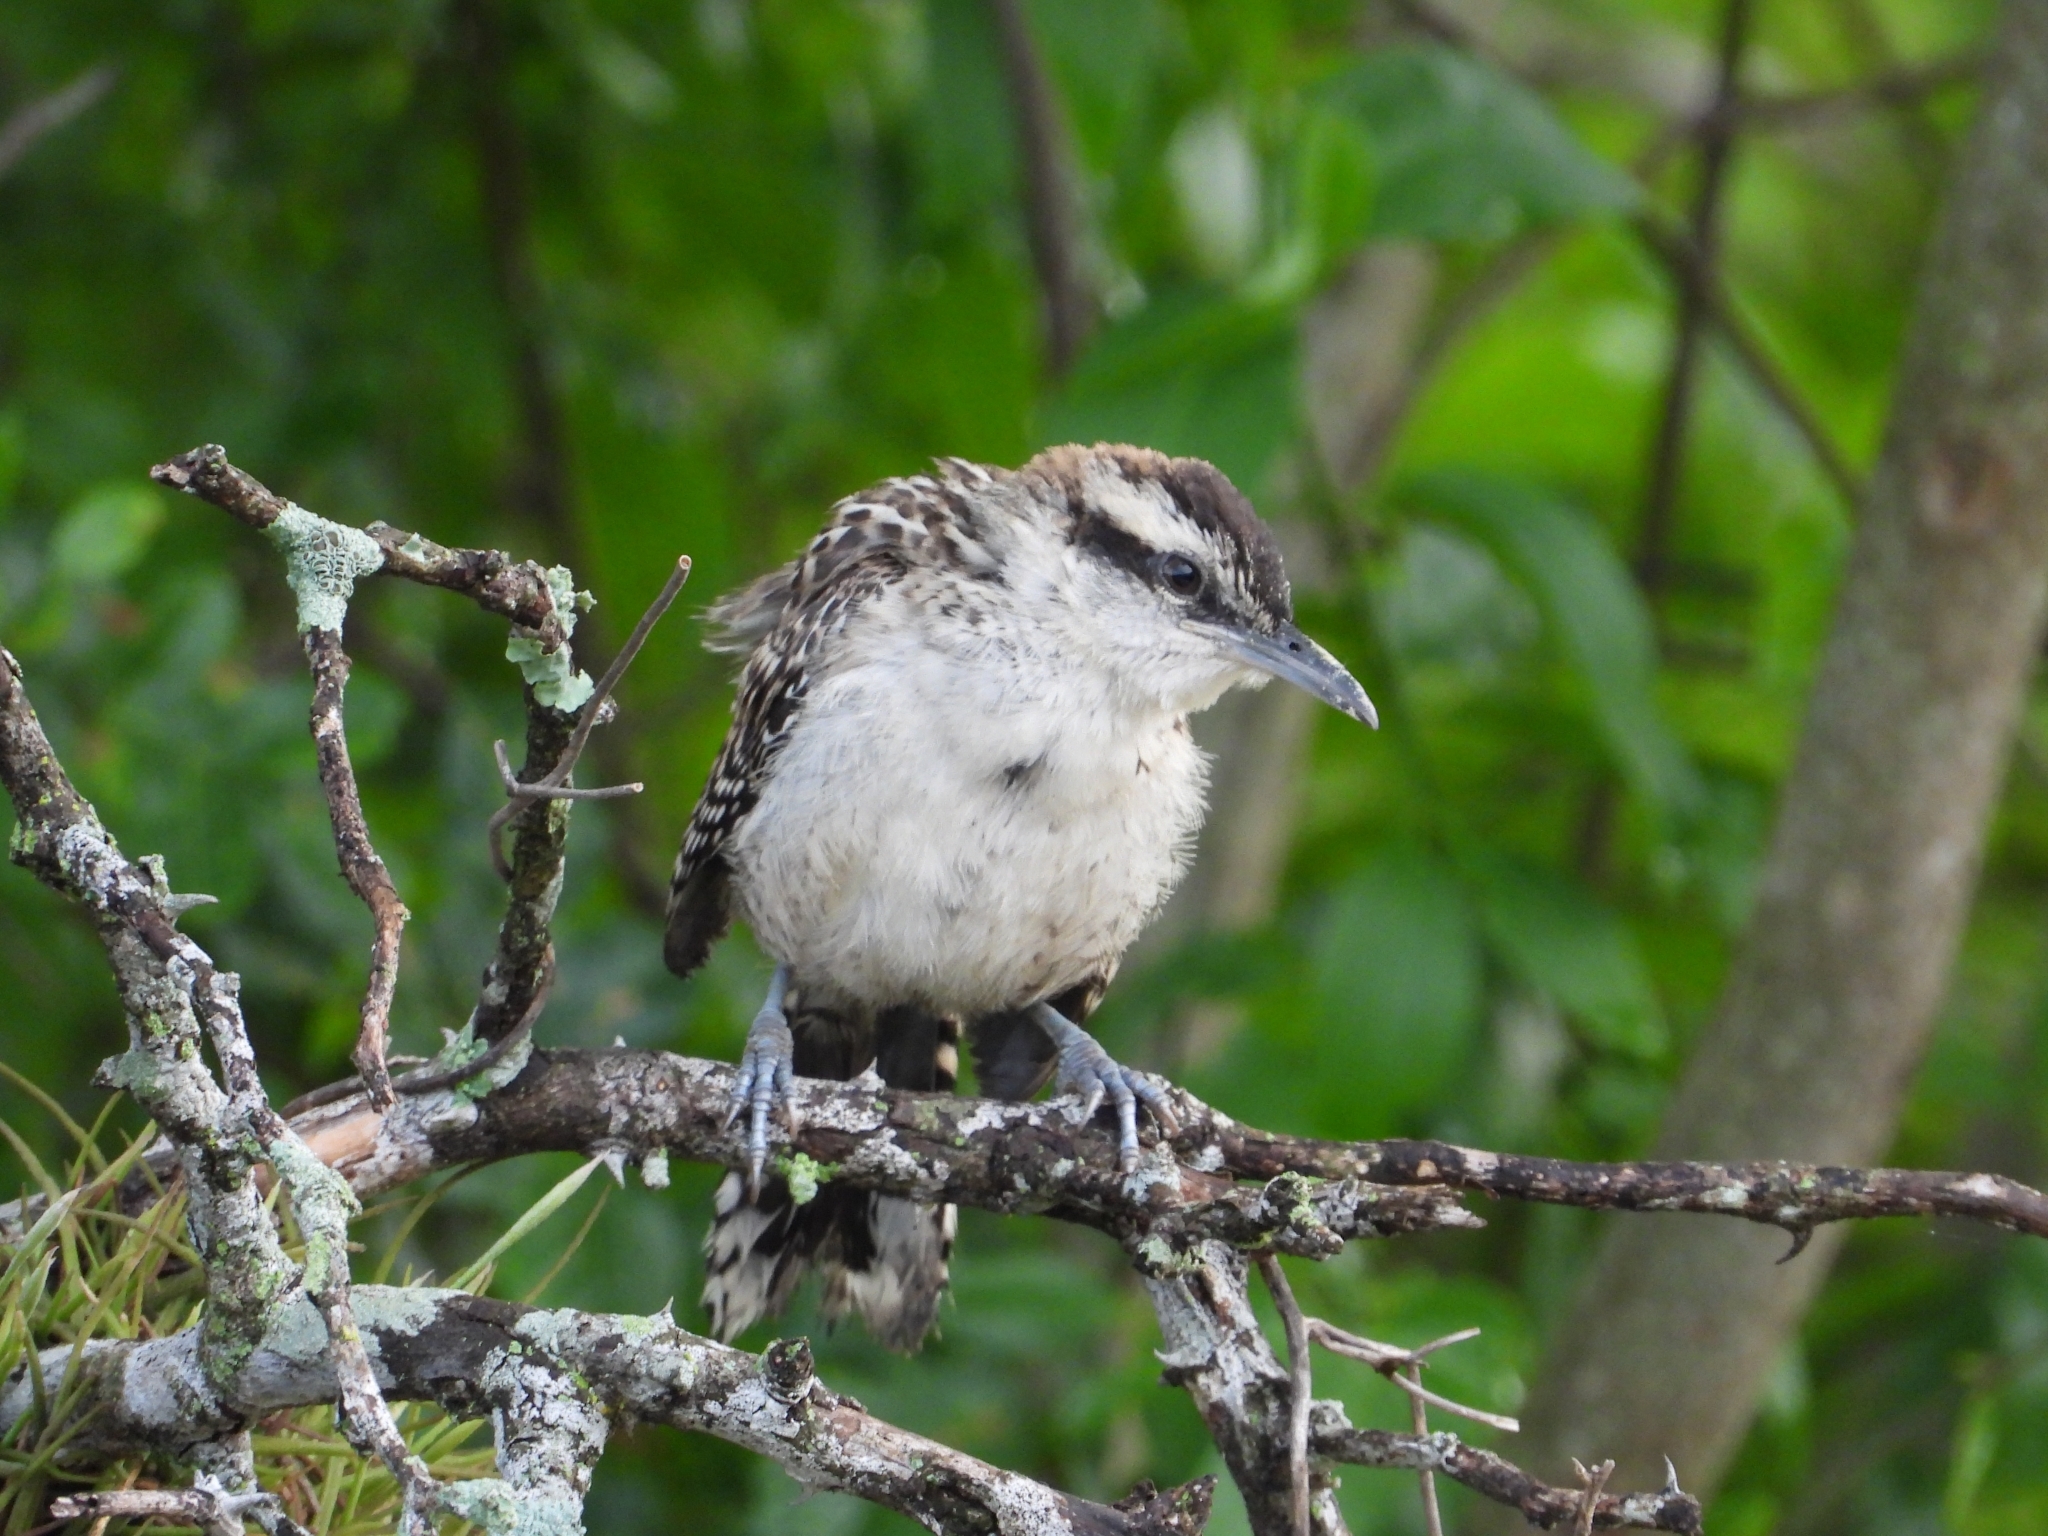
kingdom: Animalia
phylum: Chordata
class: Aves
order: Passeriformes
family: Troglodytidae
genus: Campylorhynchus
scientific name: Campylorhynchus rufinucha
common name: Rufous-naped wren
